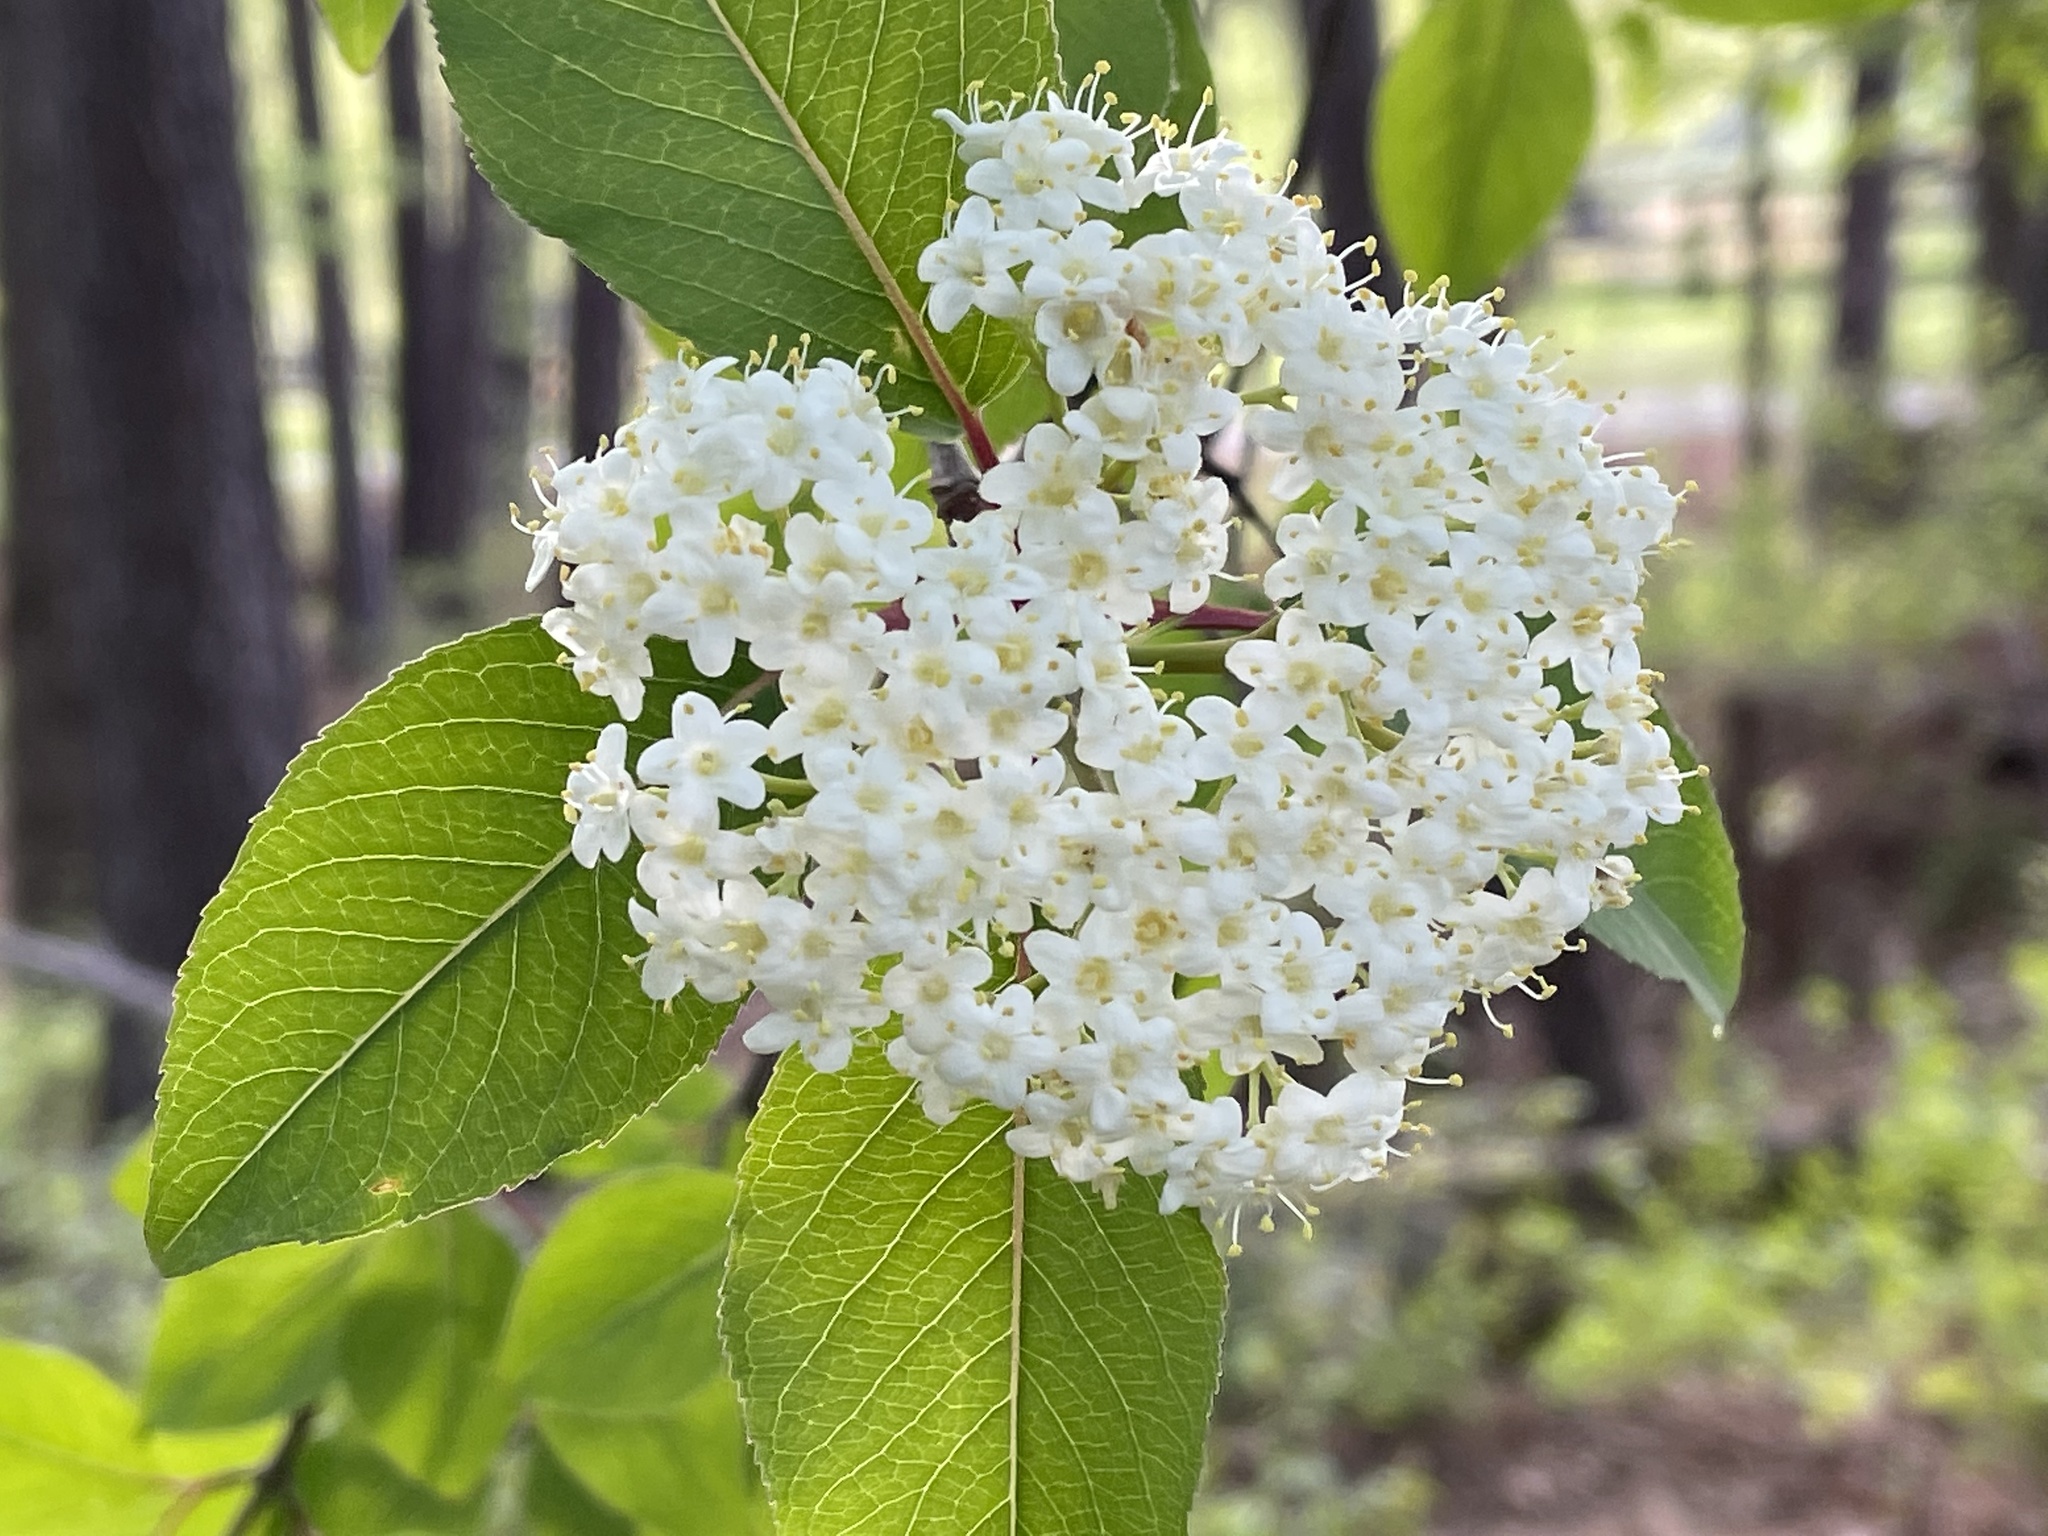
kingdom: Plantae
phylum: Tracheophyta
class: Magnoliopsida
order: Dipsacales
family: Viburnaceae
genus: Viburnum
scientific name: Viburnum prunifolium
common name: Black haw
